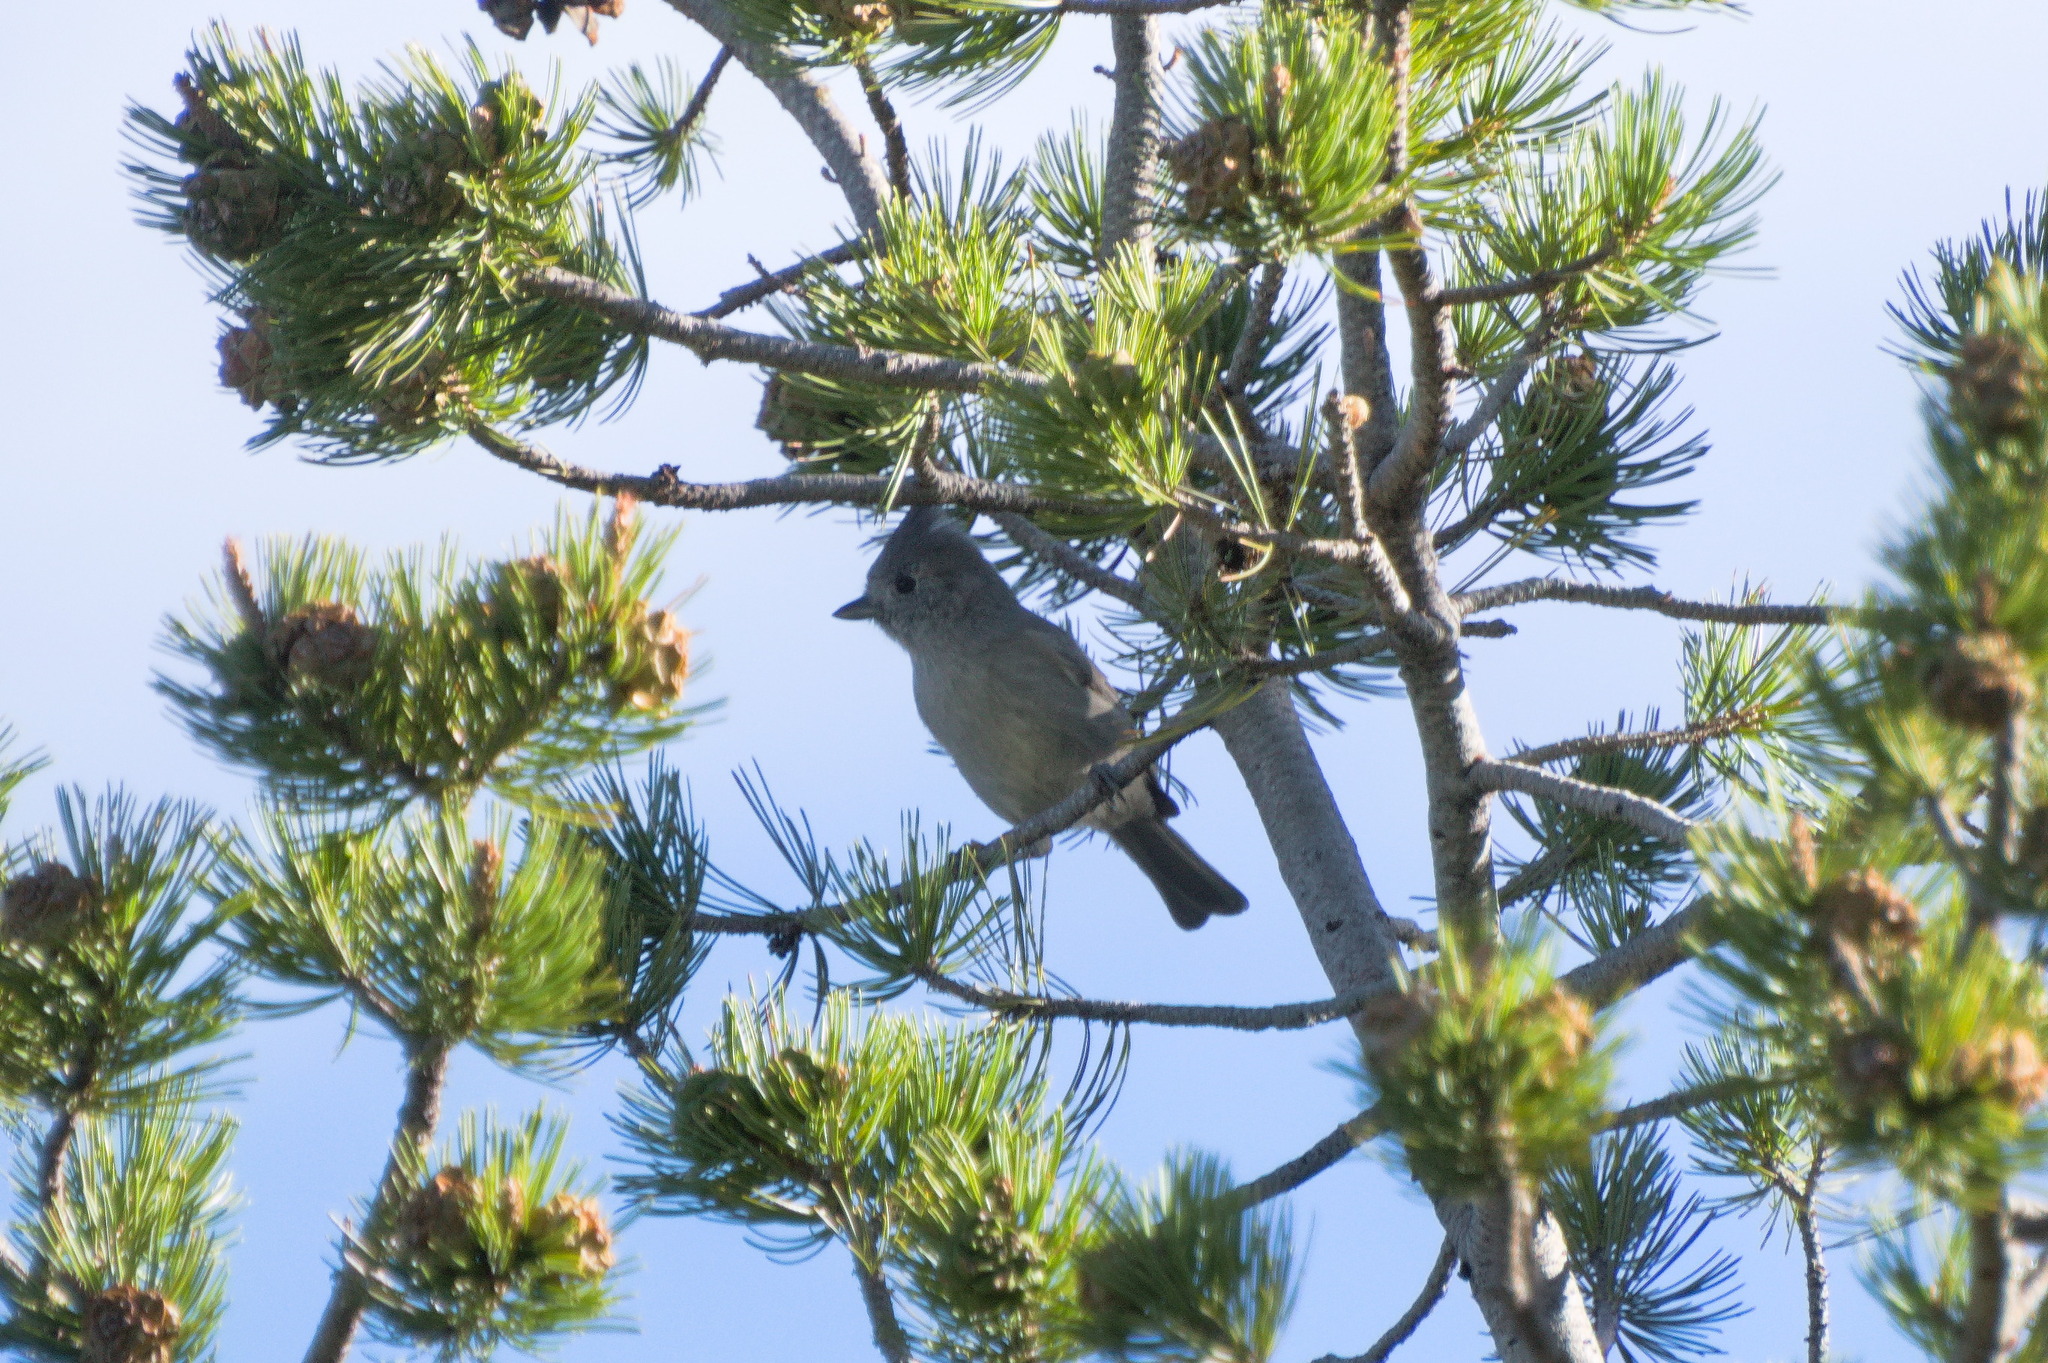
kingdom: Animalia
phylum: Chordata
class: Aves
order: Passeriformes
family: Paridae
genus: Baeolophus
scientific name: Baeolophus ridgwayi
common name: Juniper titmouse
